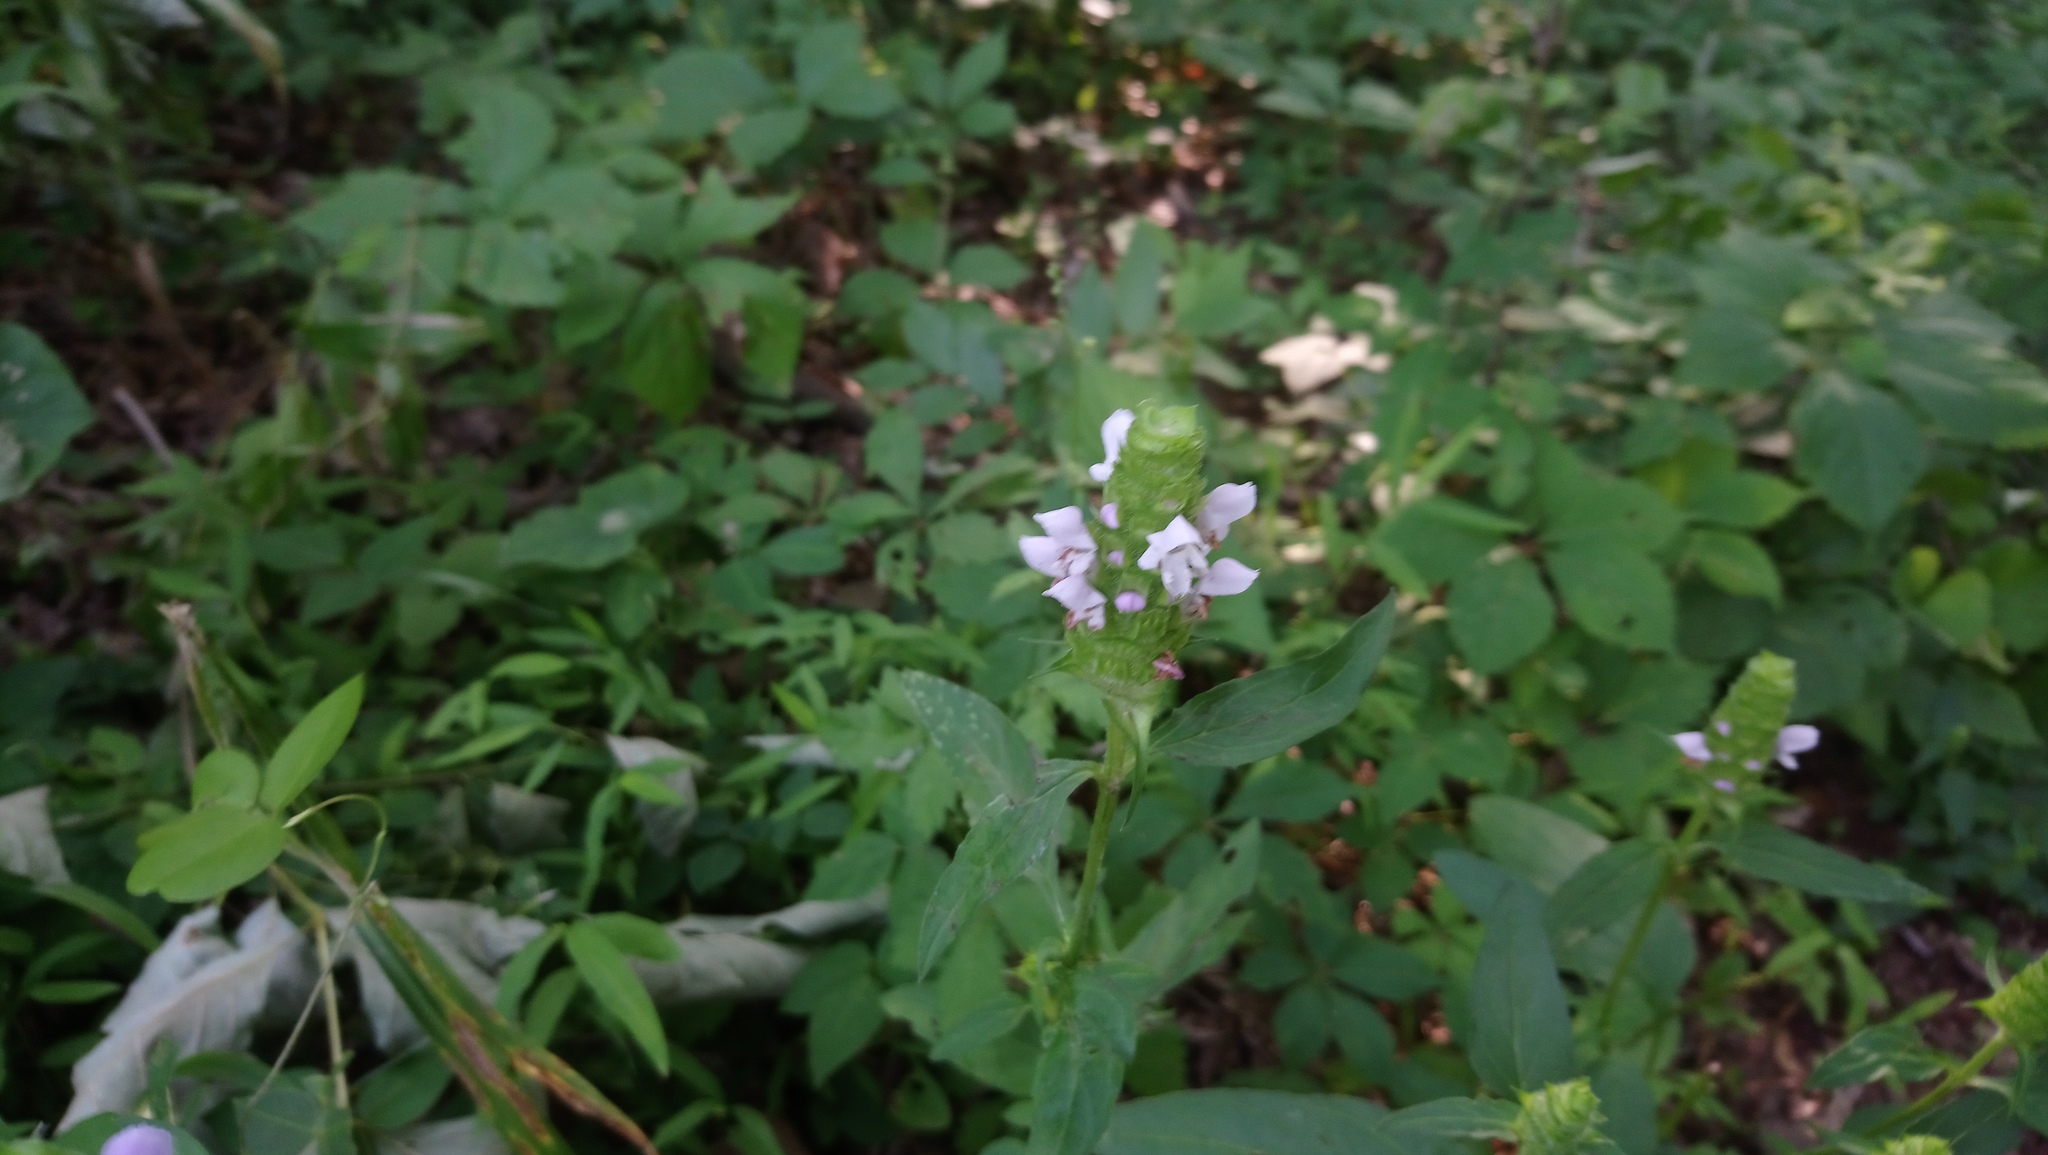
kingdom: Plantae
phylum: Tracheophyta
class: Magnoliopsida
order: Lamiales
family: Lamiaceae
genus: Prunella
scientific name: Prunella vulgaris
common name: Heal-all
